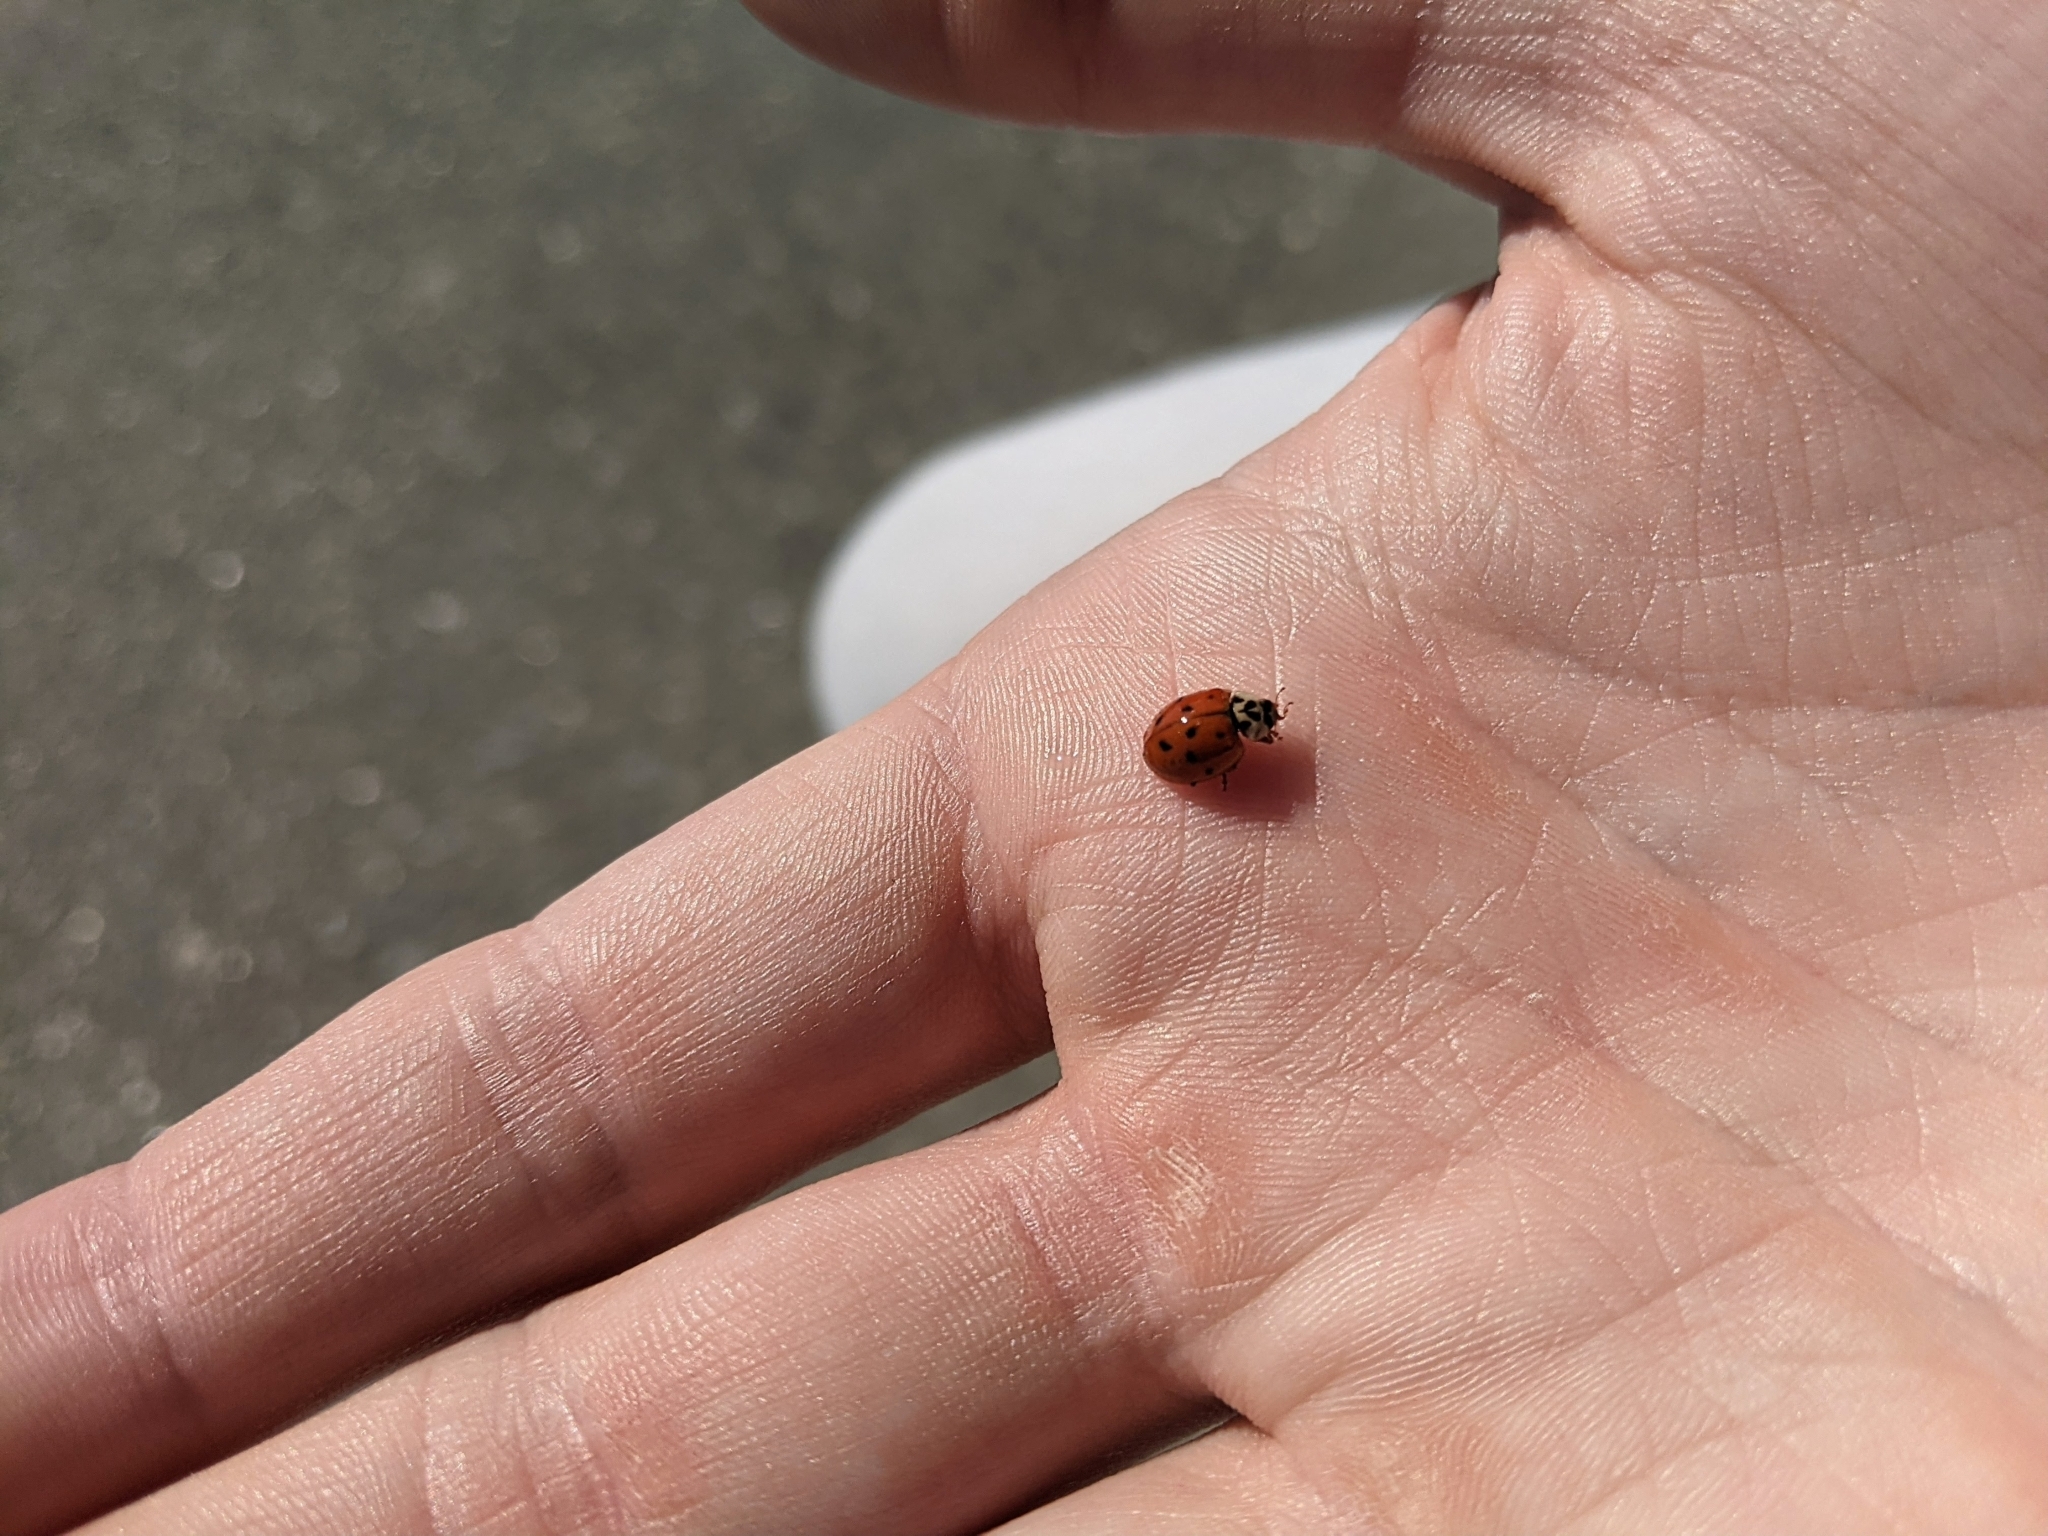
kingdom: Animalia
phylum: Arthropoda
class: Insecta
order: Coleoptera
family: Coccinellidae
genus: Harmonia
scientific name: Harmonia axyridis
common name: Harlequin ladybird
